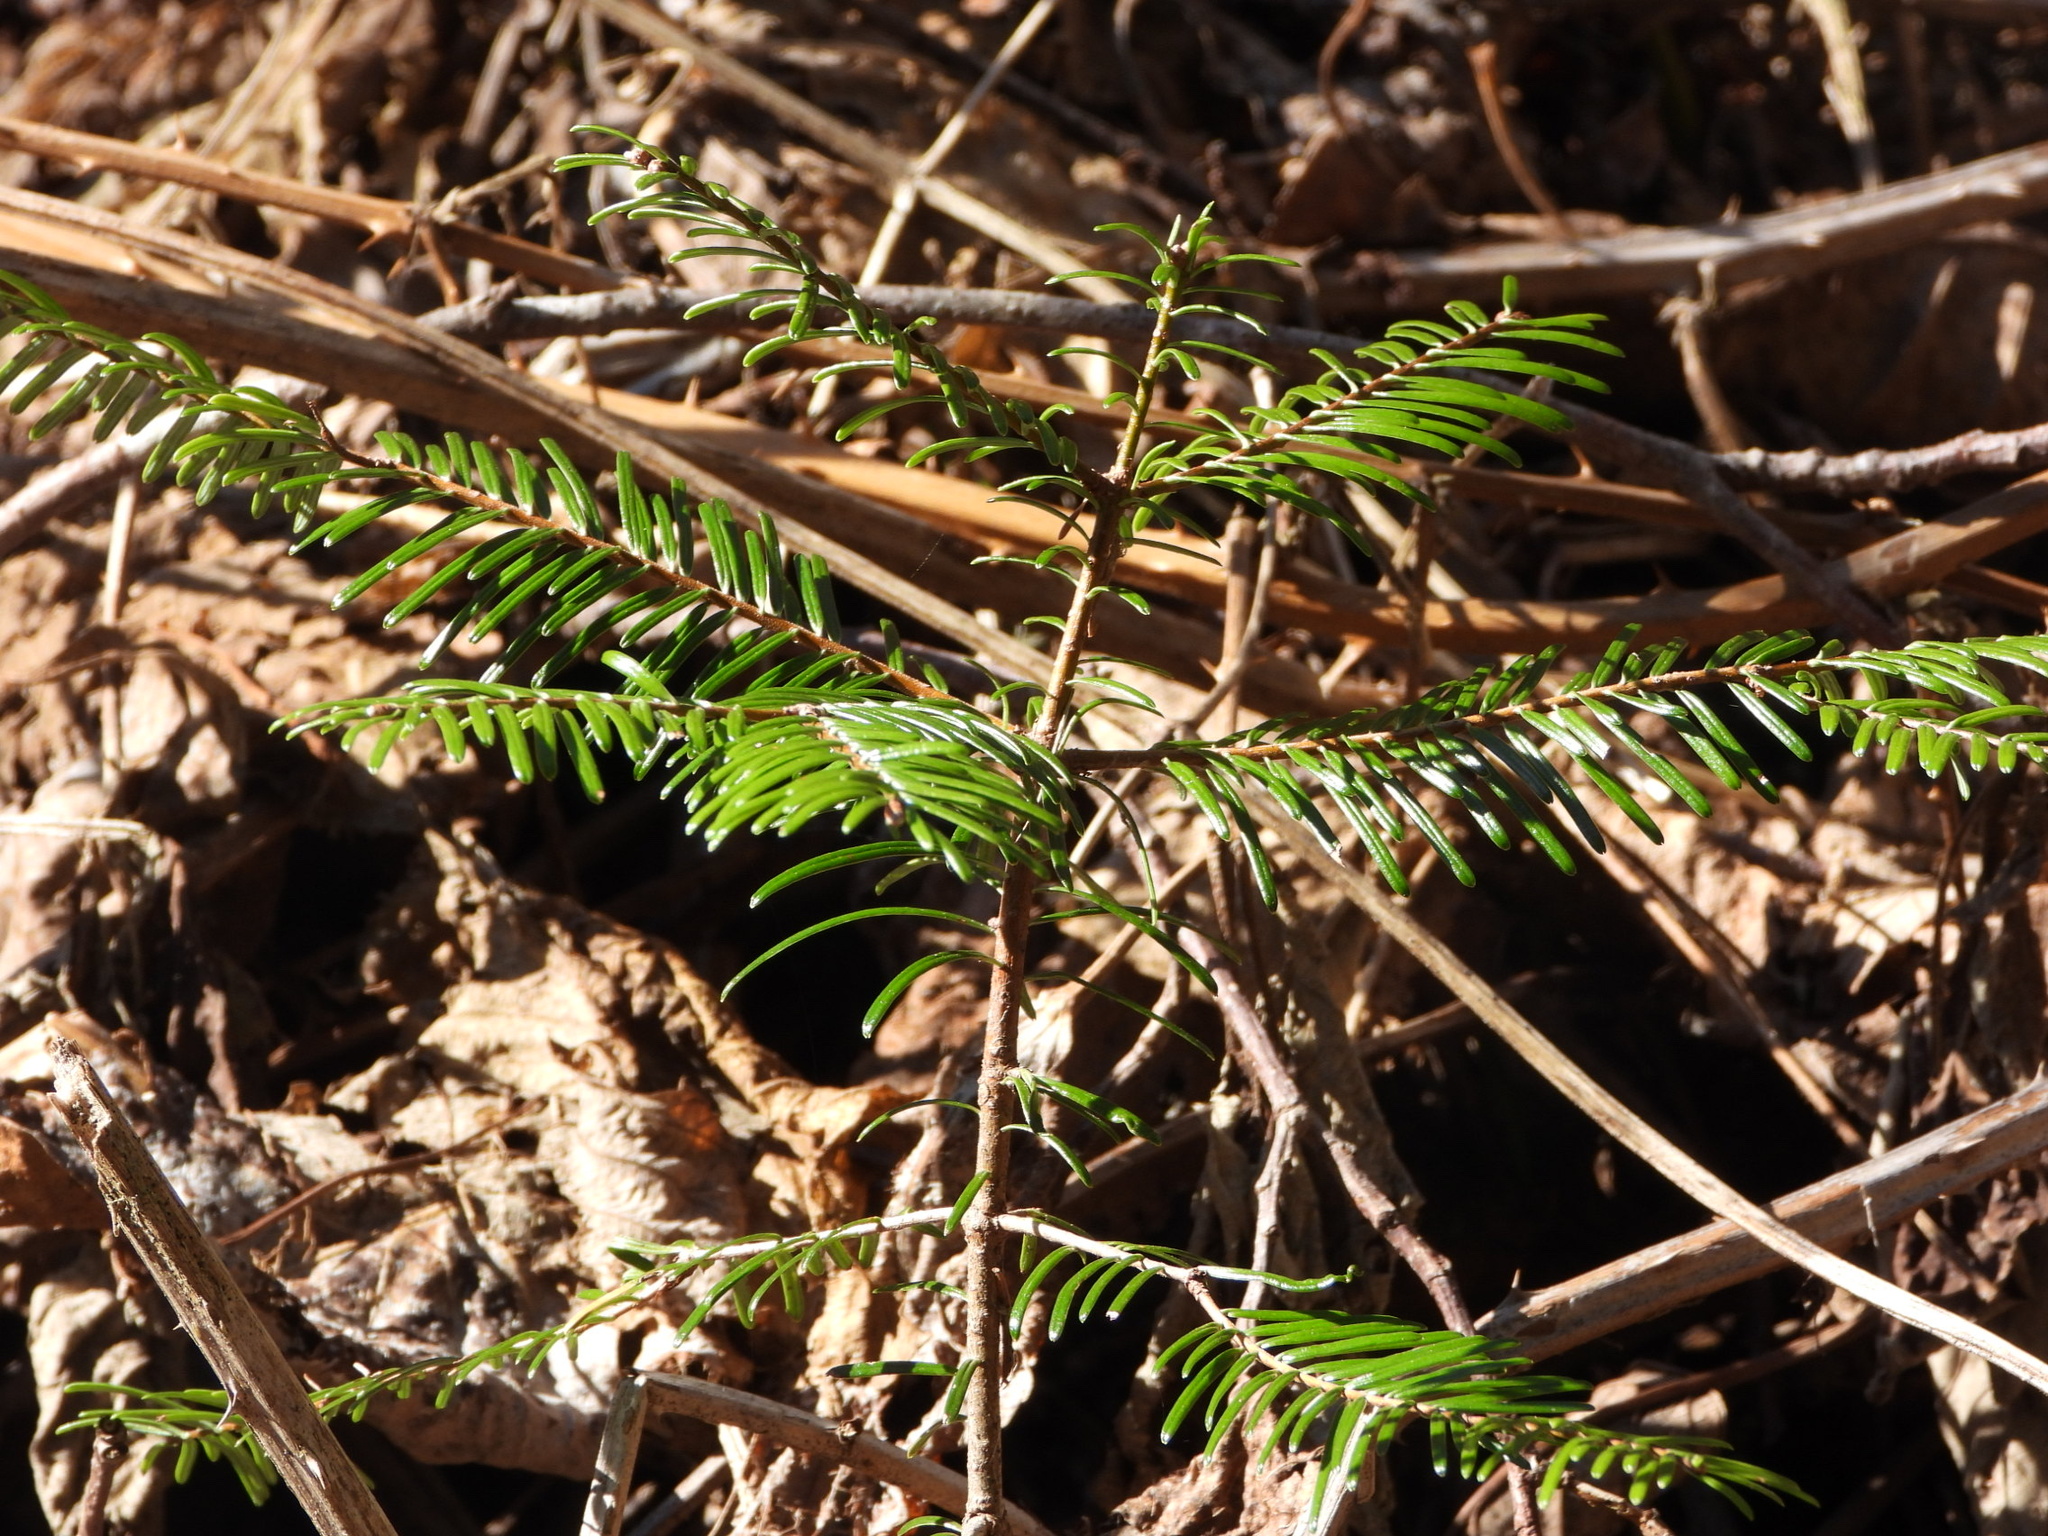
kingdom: Plantae
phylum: Tracheophyta
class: Pinopsida
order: Pinales
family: Pinaceae
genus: Abies
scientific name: Abies grandis
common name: Giant fir
